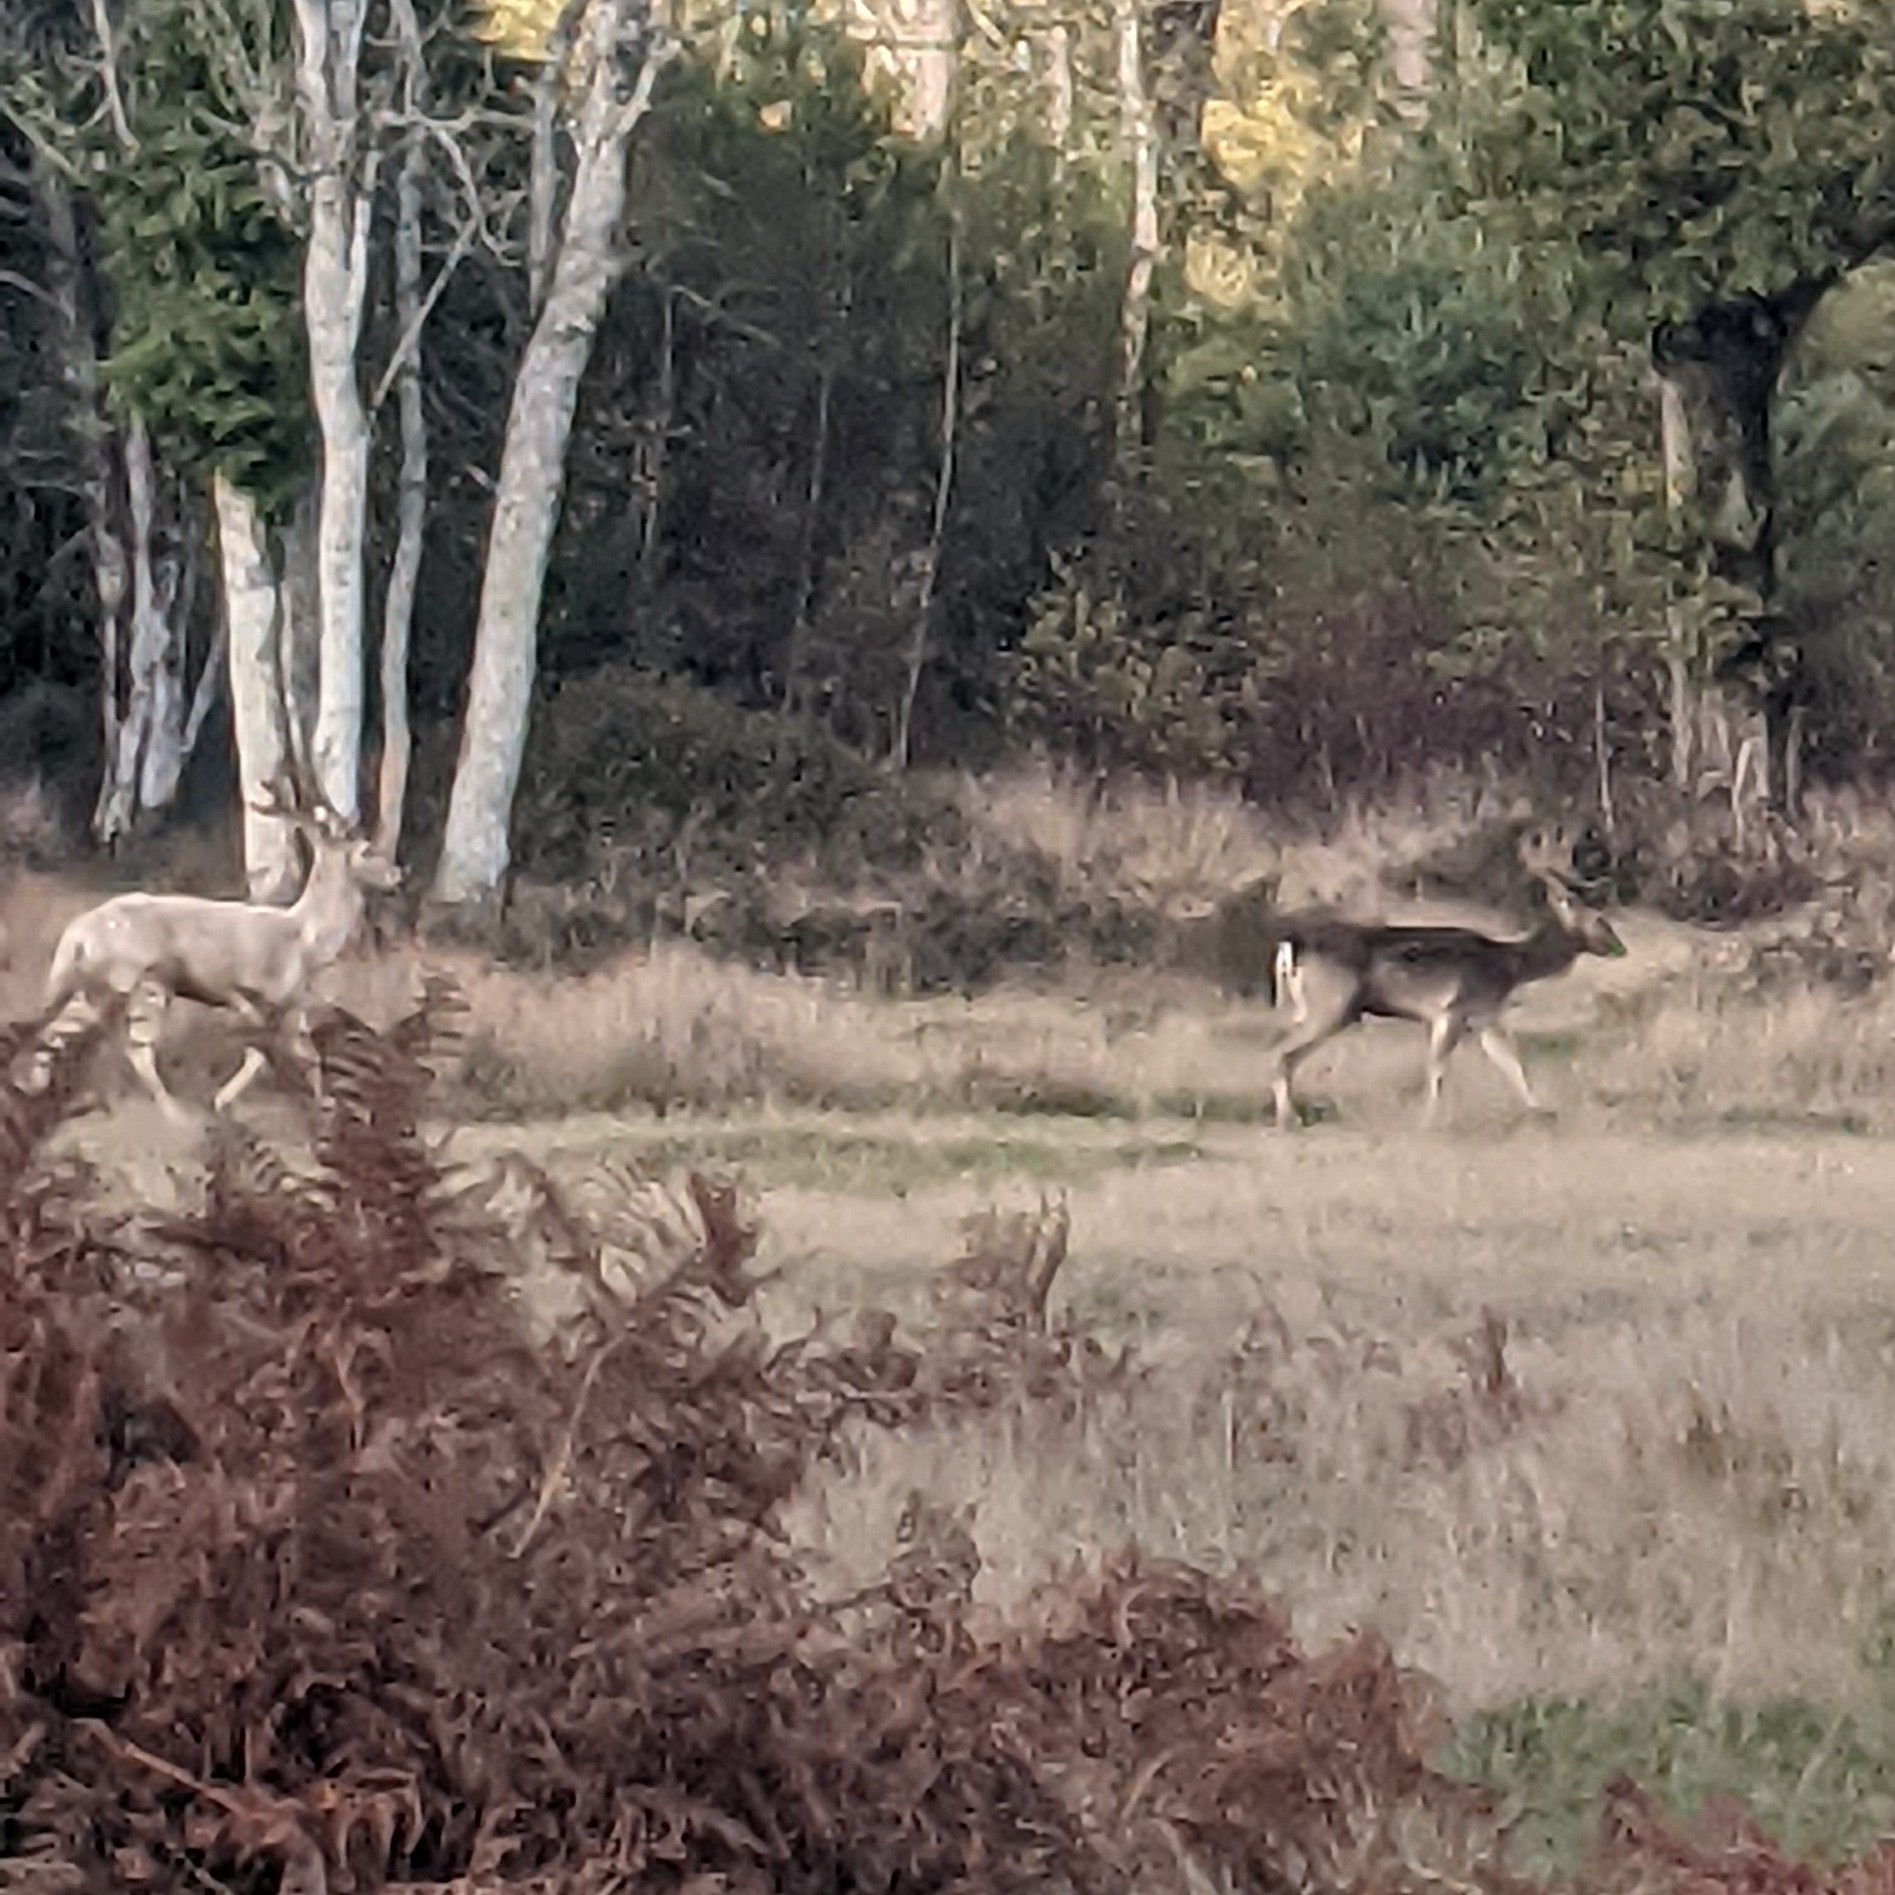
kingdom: Animalia
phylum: Chordata
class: Mammalia
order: Artiodactyla
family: Cervidae
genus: Dama
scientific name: Dama dama
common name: Fallow deer
